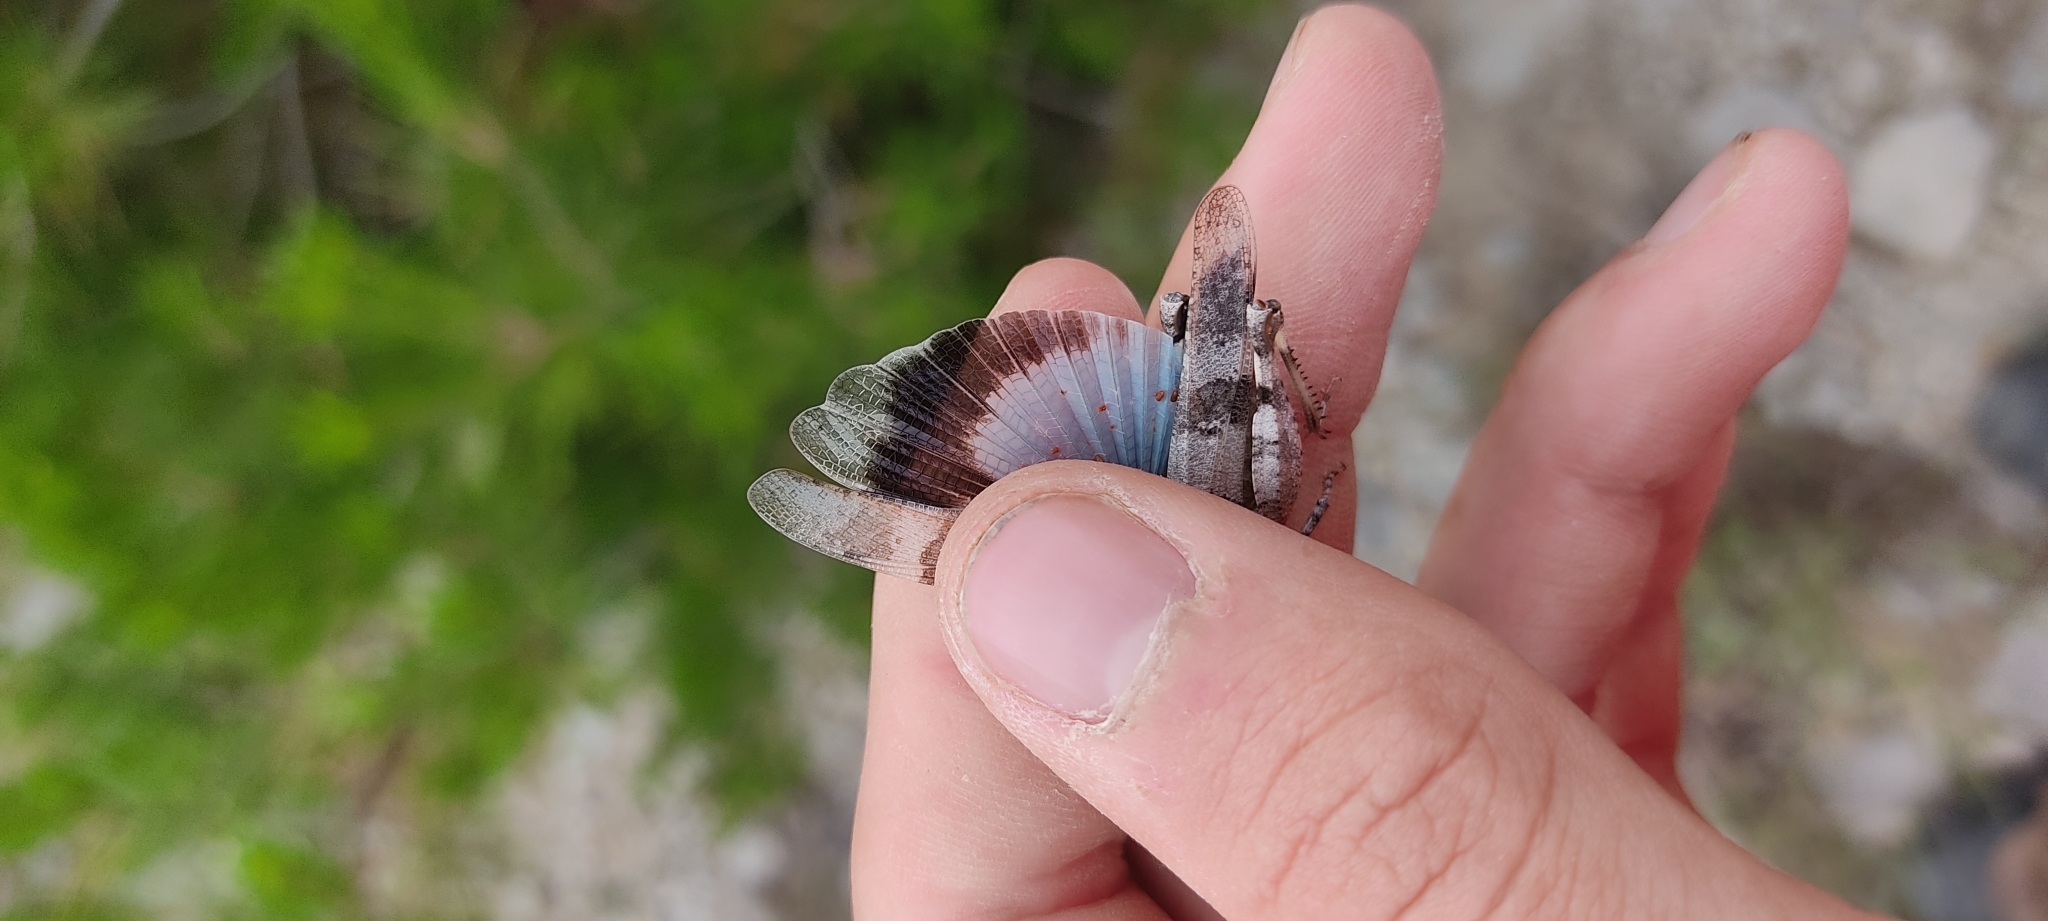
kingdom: Animalia
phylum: Arthropoda
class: Insecta
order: Orthoptera
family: Acrididae
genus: Oedipoda
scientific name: Oedipoda caerulescens
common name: Blue-winged grasshopper
